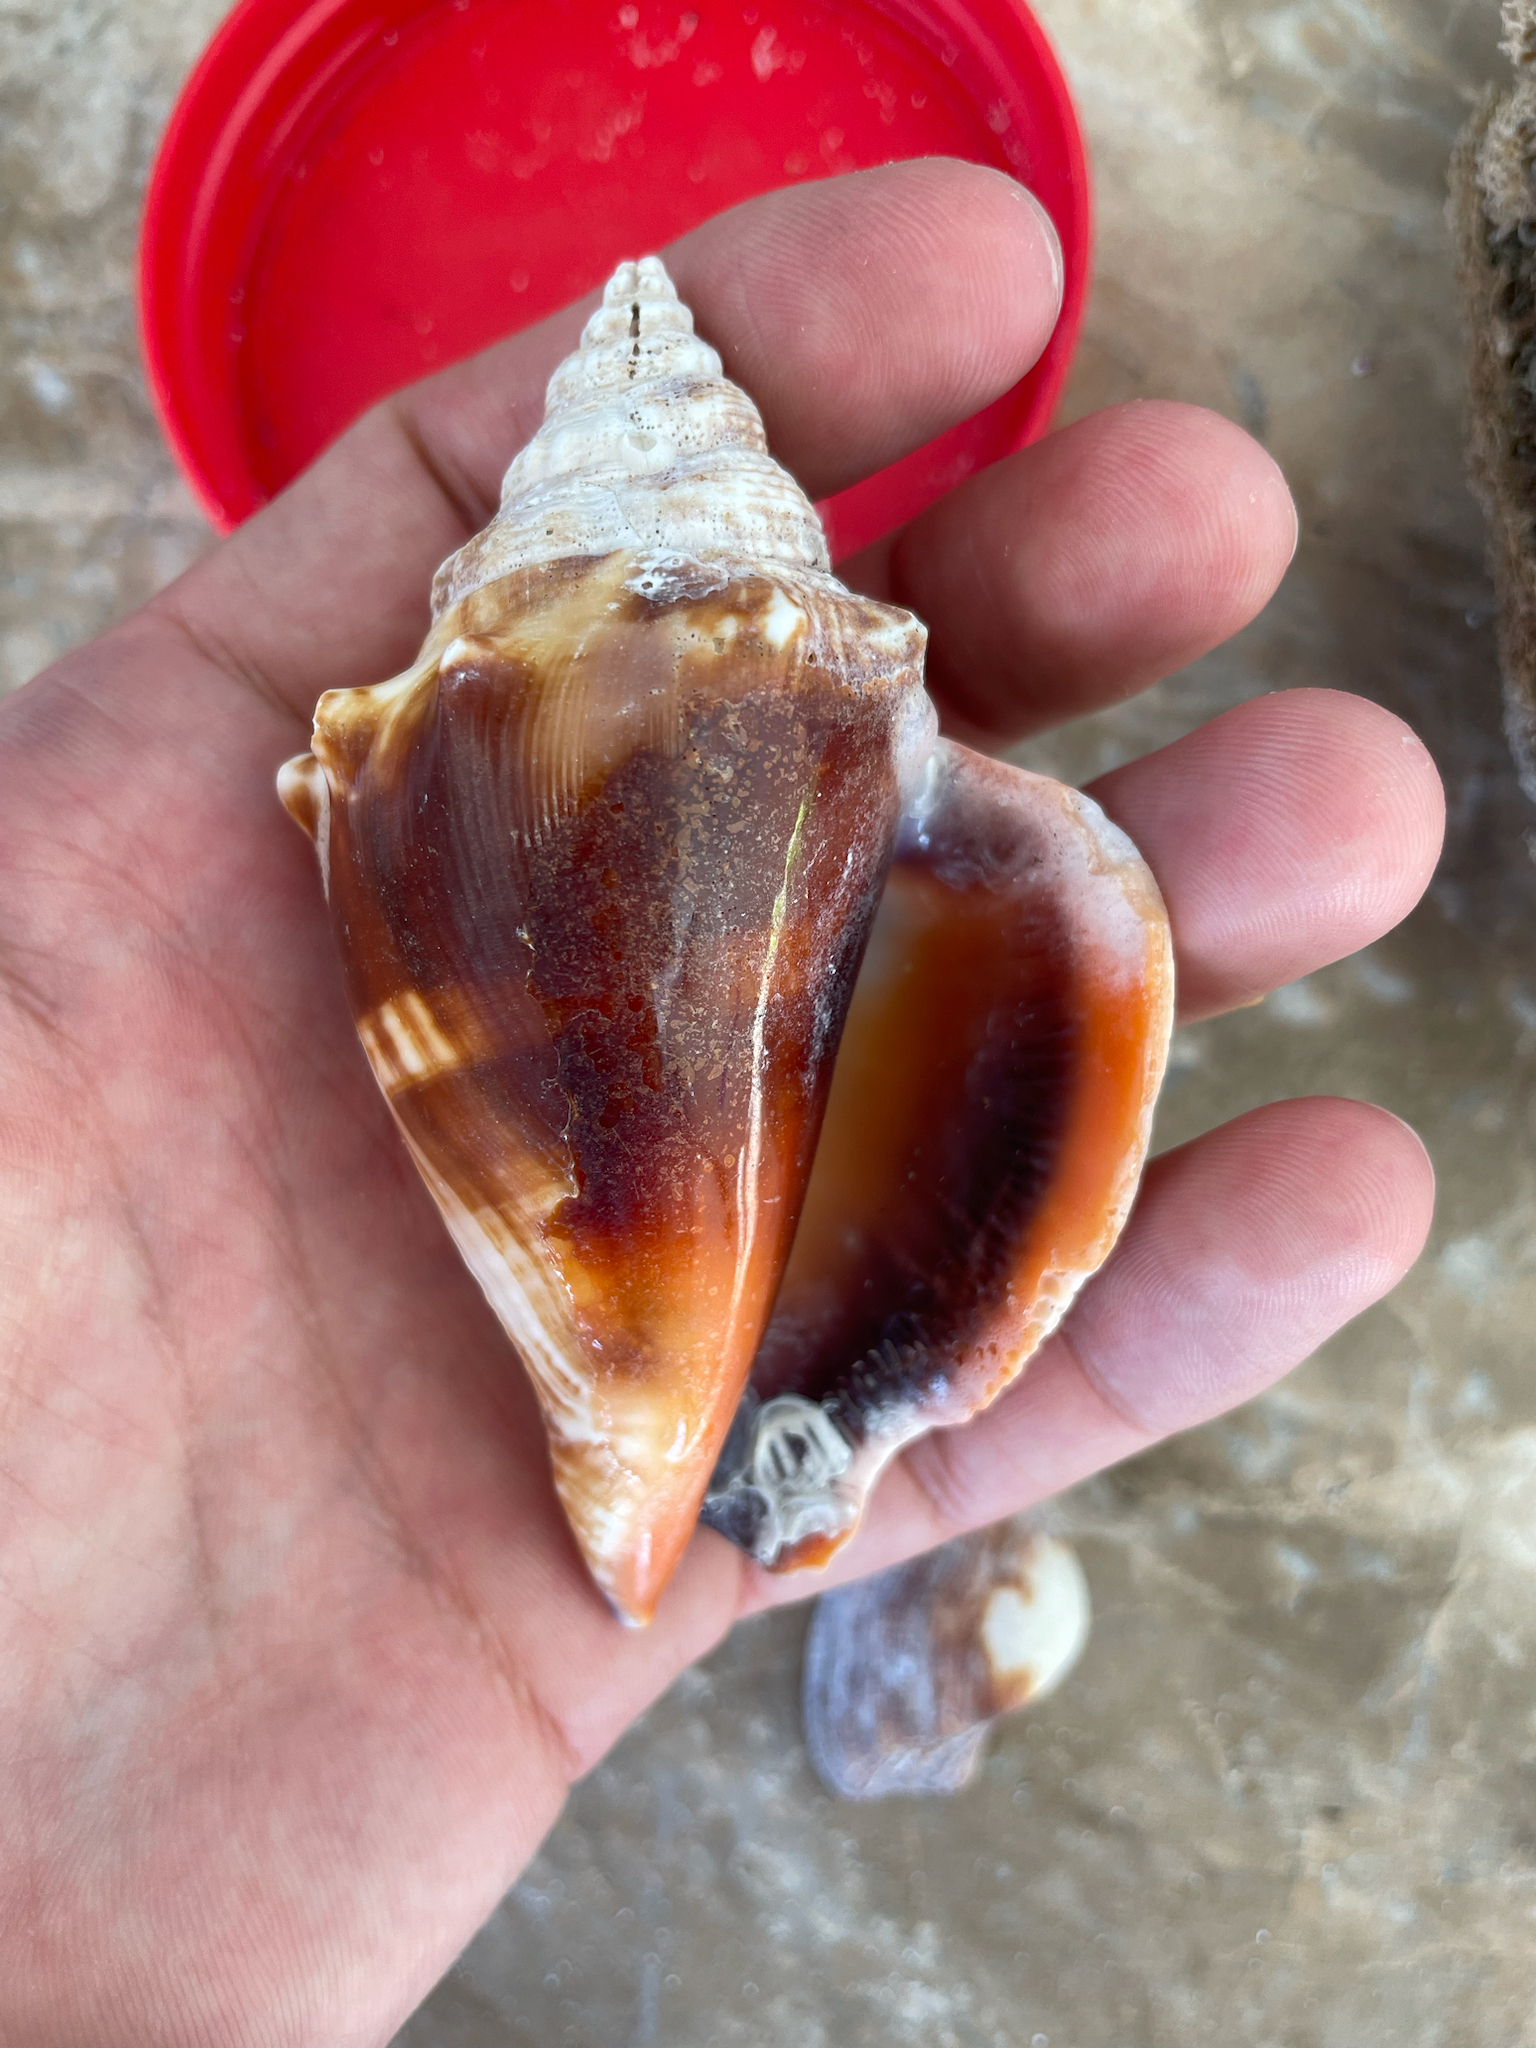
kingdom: Animalia
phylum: Mollusca
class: Gastropoda
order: Littorinimorpha
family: Strombidae
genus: Strombus
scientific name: Strombus alatus
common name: Florida fighting conch
